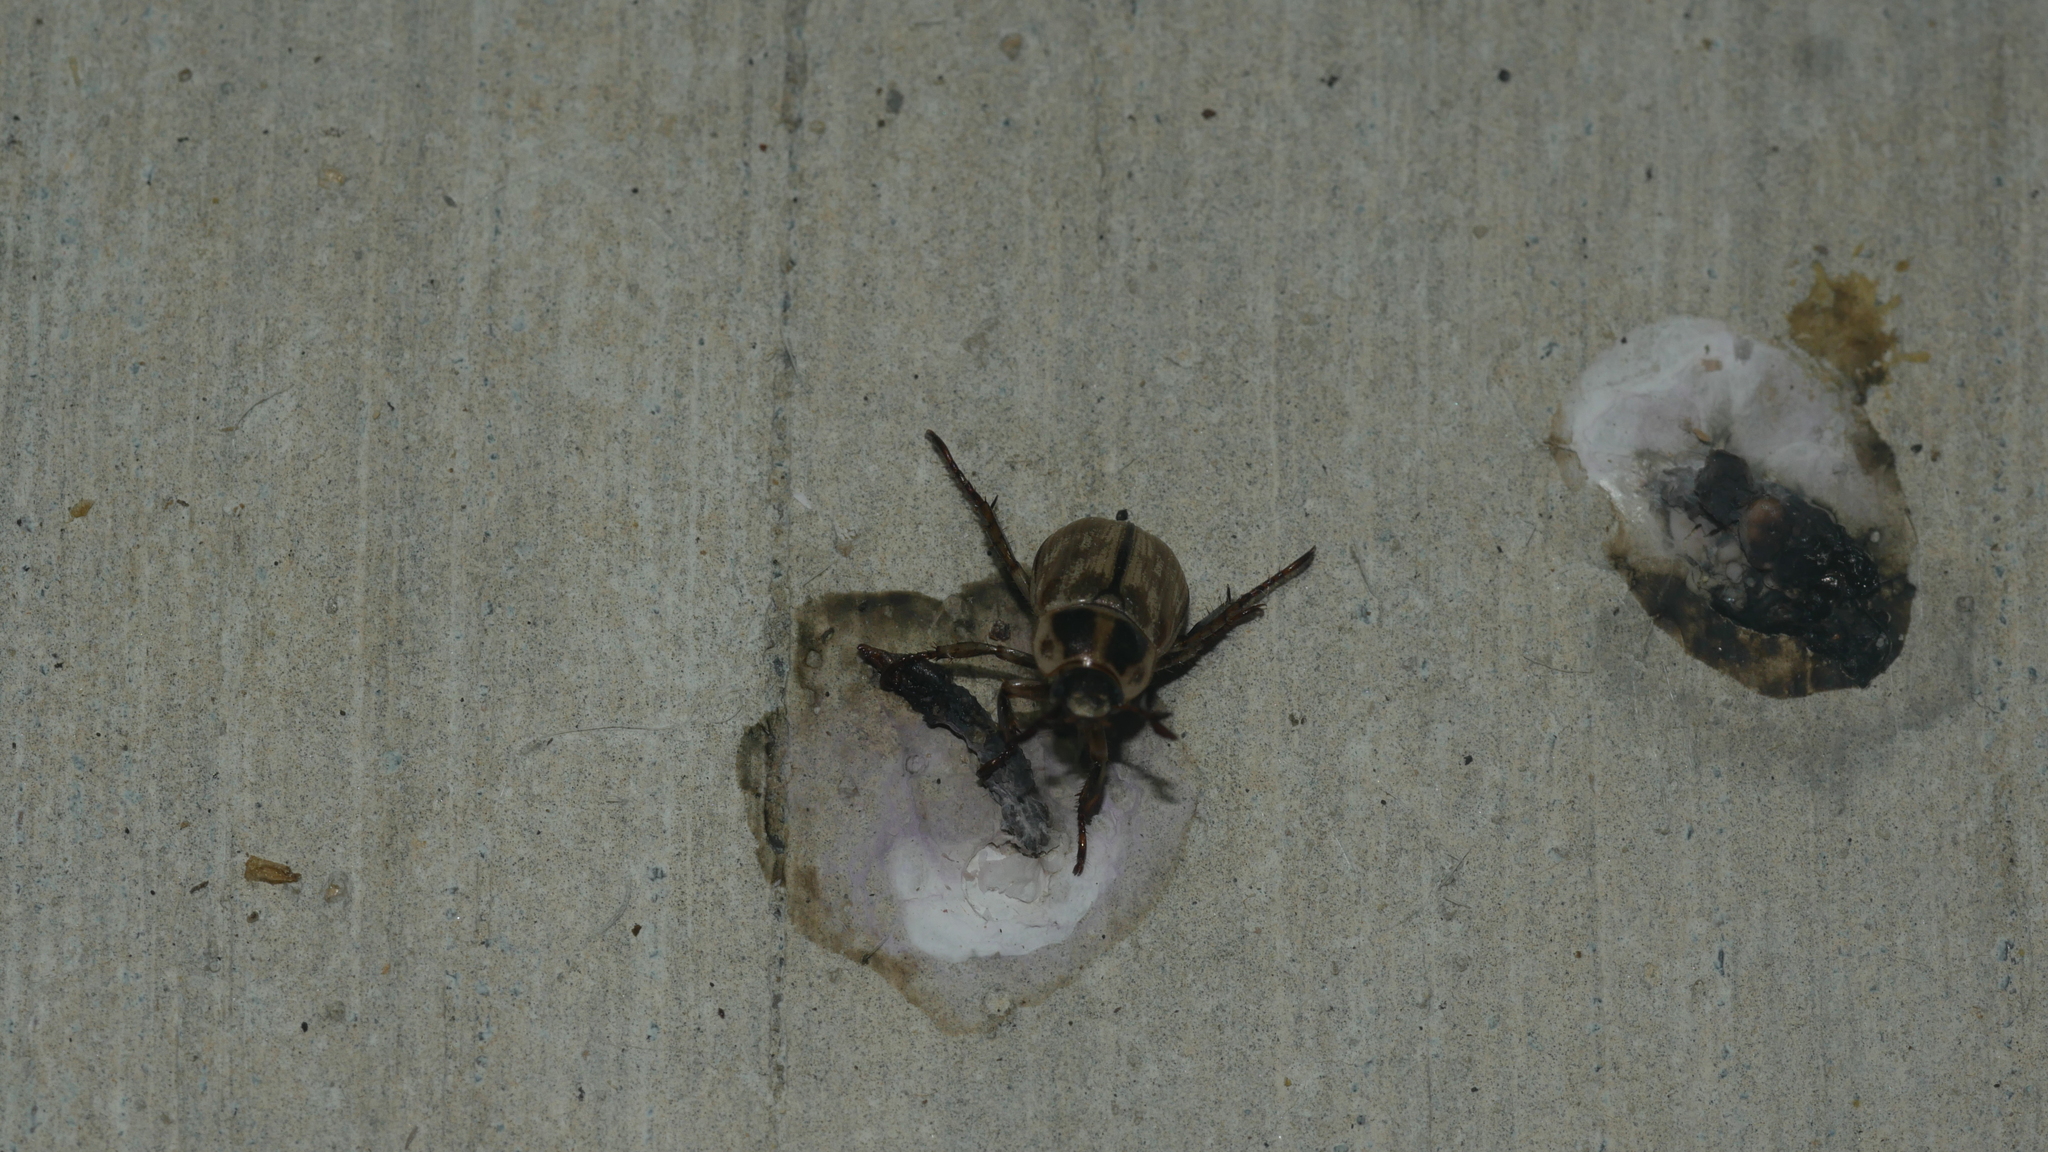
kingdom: Animalia
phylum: Arthropoda
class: Insecta
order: Coleoptera
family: Scarabaeidae
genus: Exomala
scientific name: Exomala orientalis
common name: Oriental beetle
